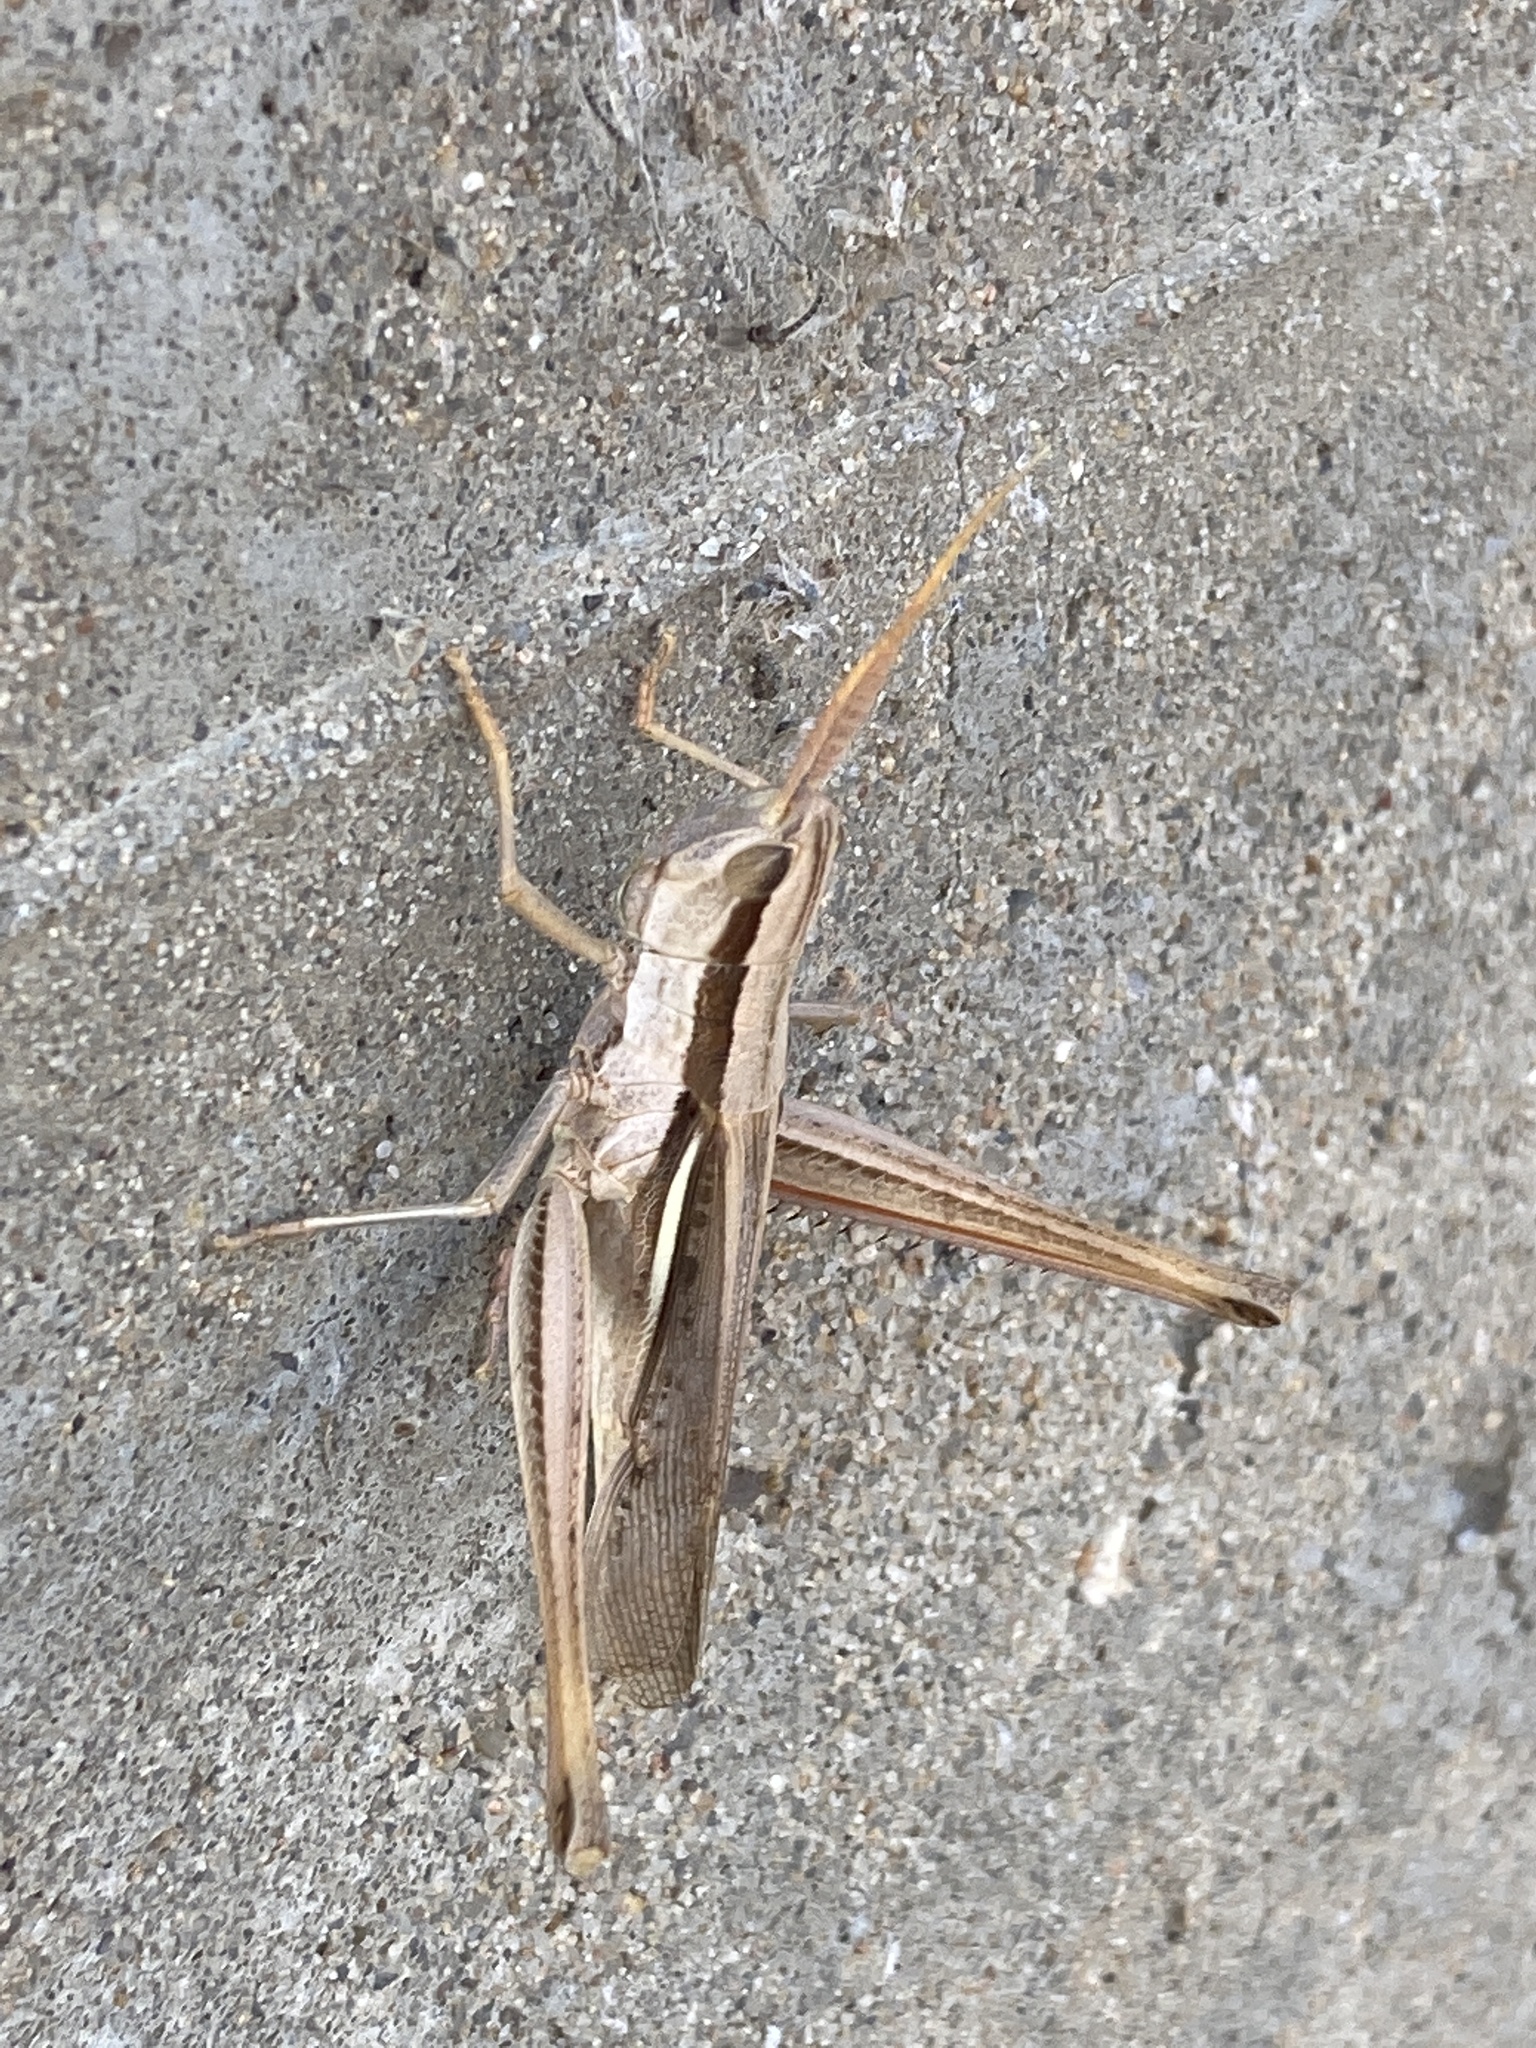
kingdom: Animalia
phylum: Arthropoda
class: Insecta
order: Orthoptera
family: Acrididae
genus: Mermiria
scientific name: Mermiria bivittata
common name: Two-striped mermiria grasshopper
